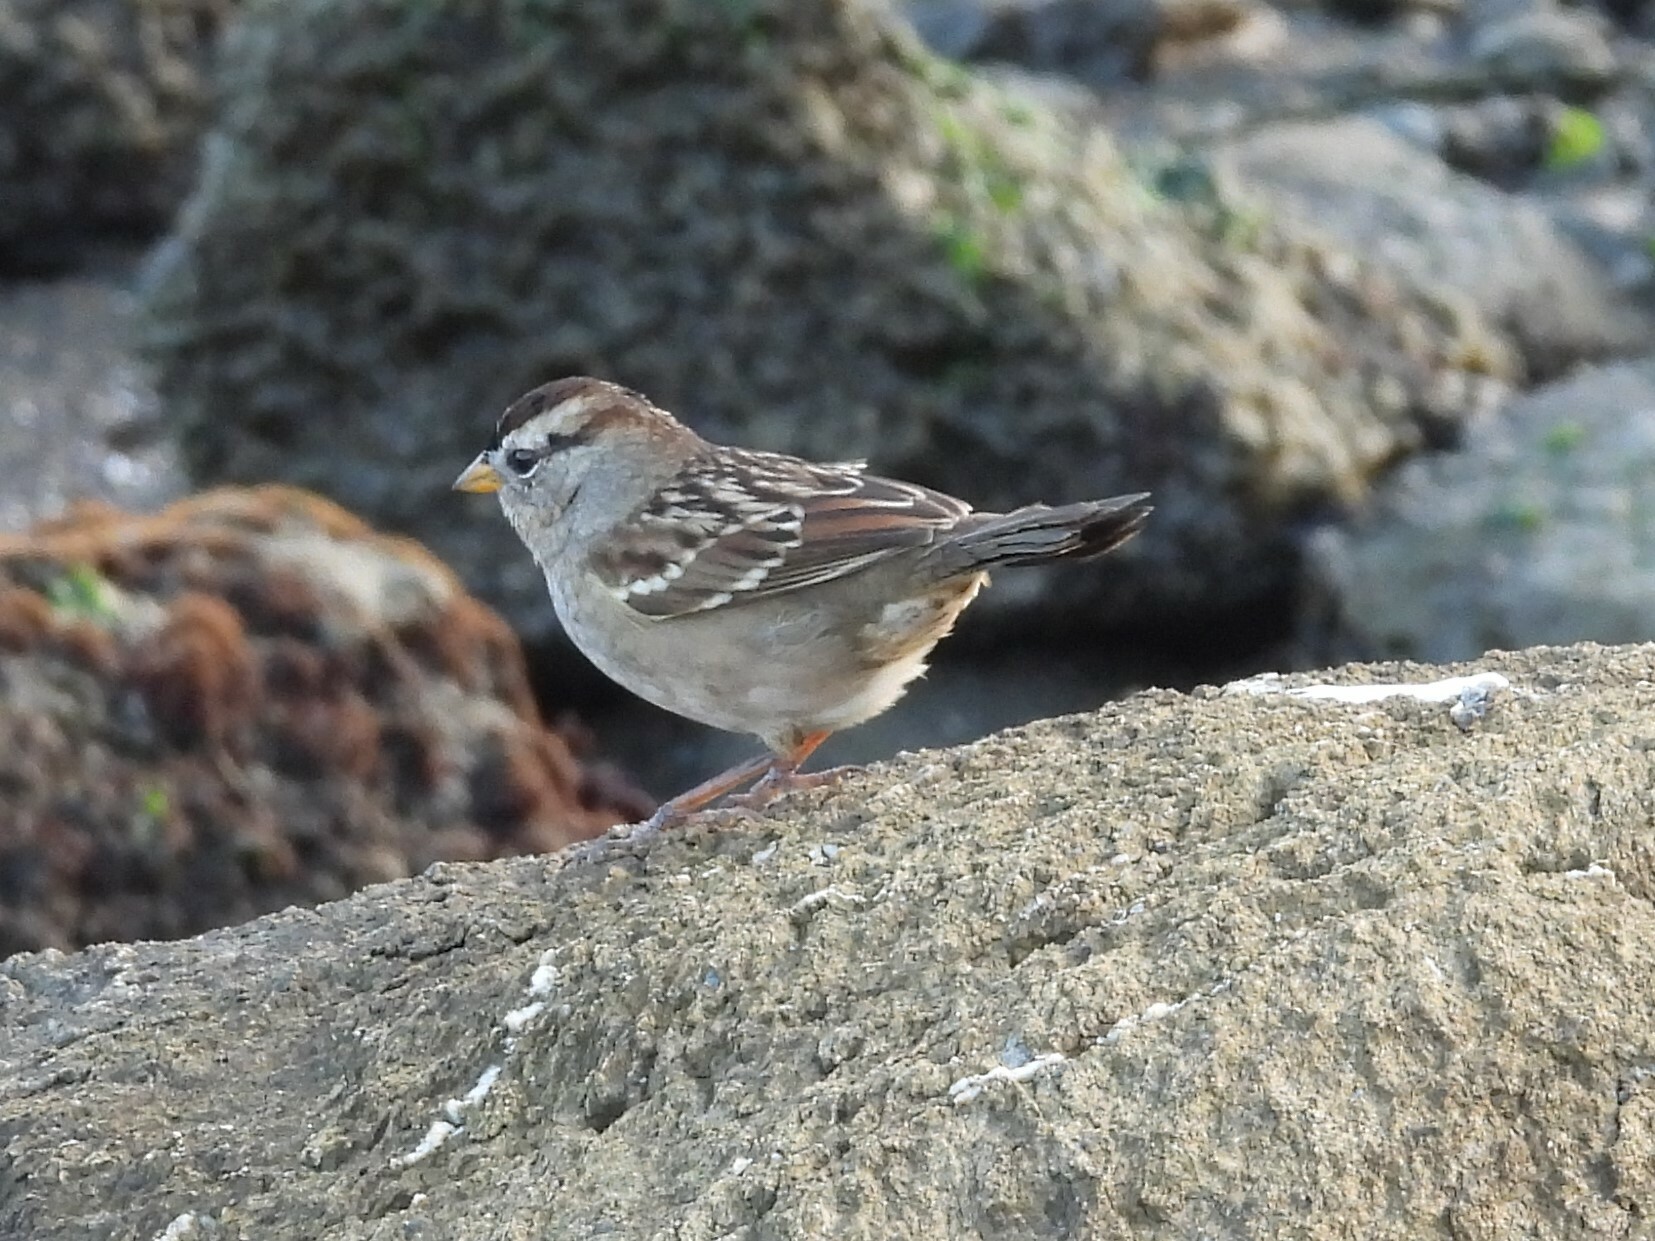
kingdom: Animalia
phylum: Chordata
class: Aves
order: Passeriformes
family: Passerellidae
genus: Zonotrichia
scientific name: Zonotrichia leucophrys
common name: White-crowned sparrow
